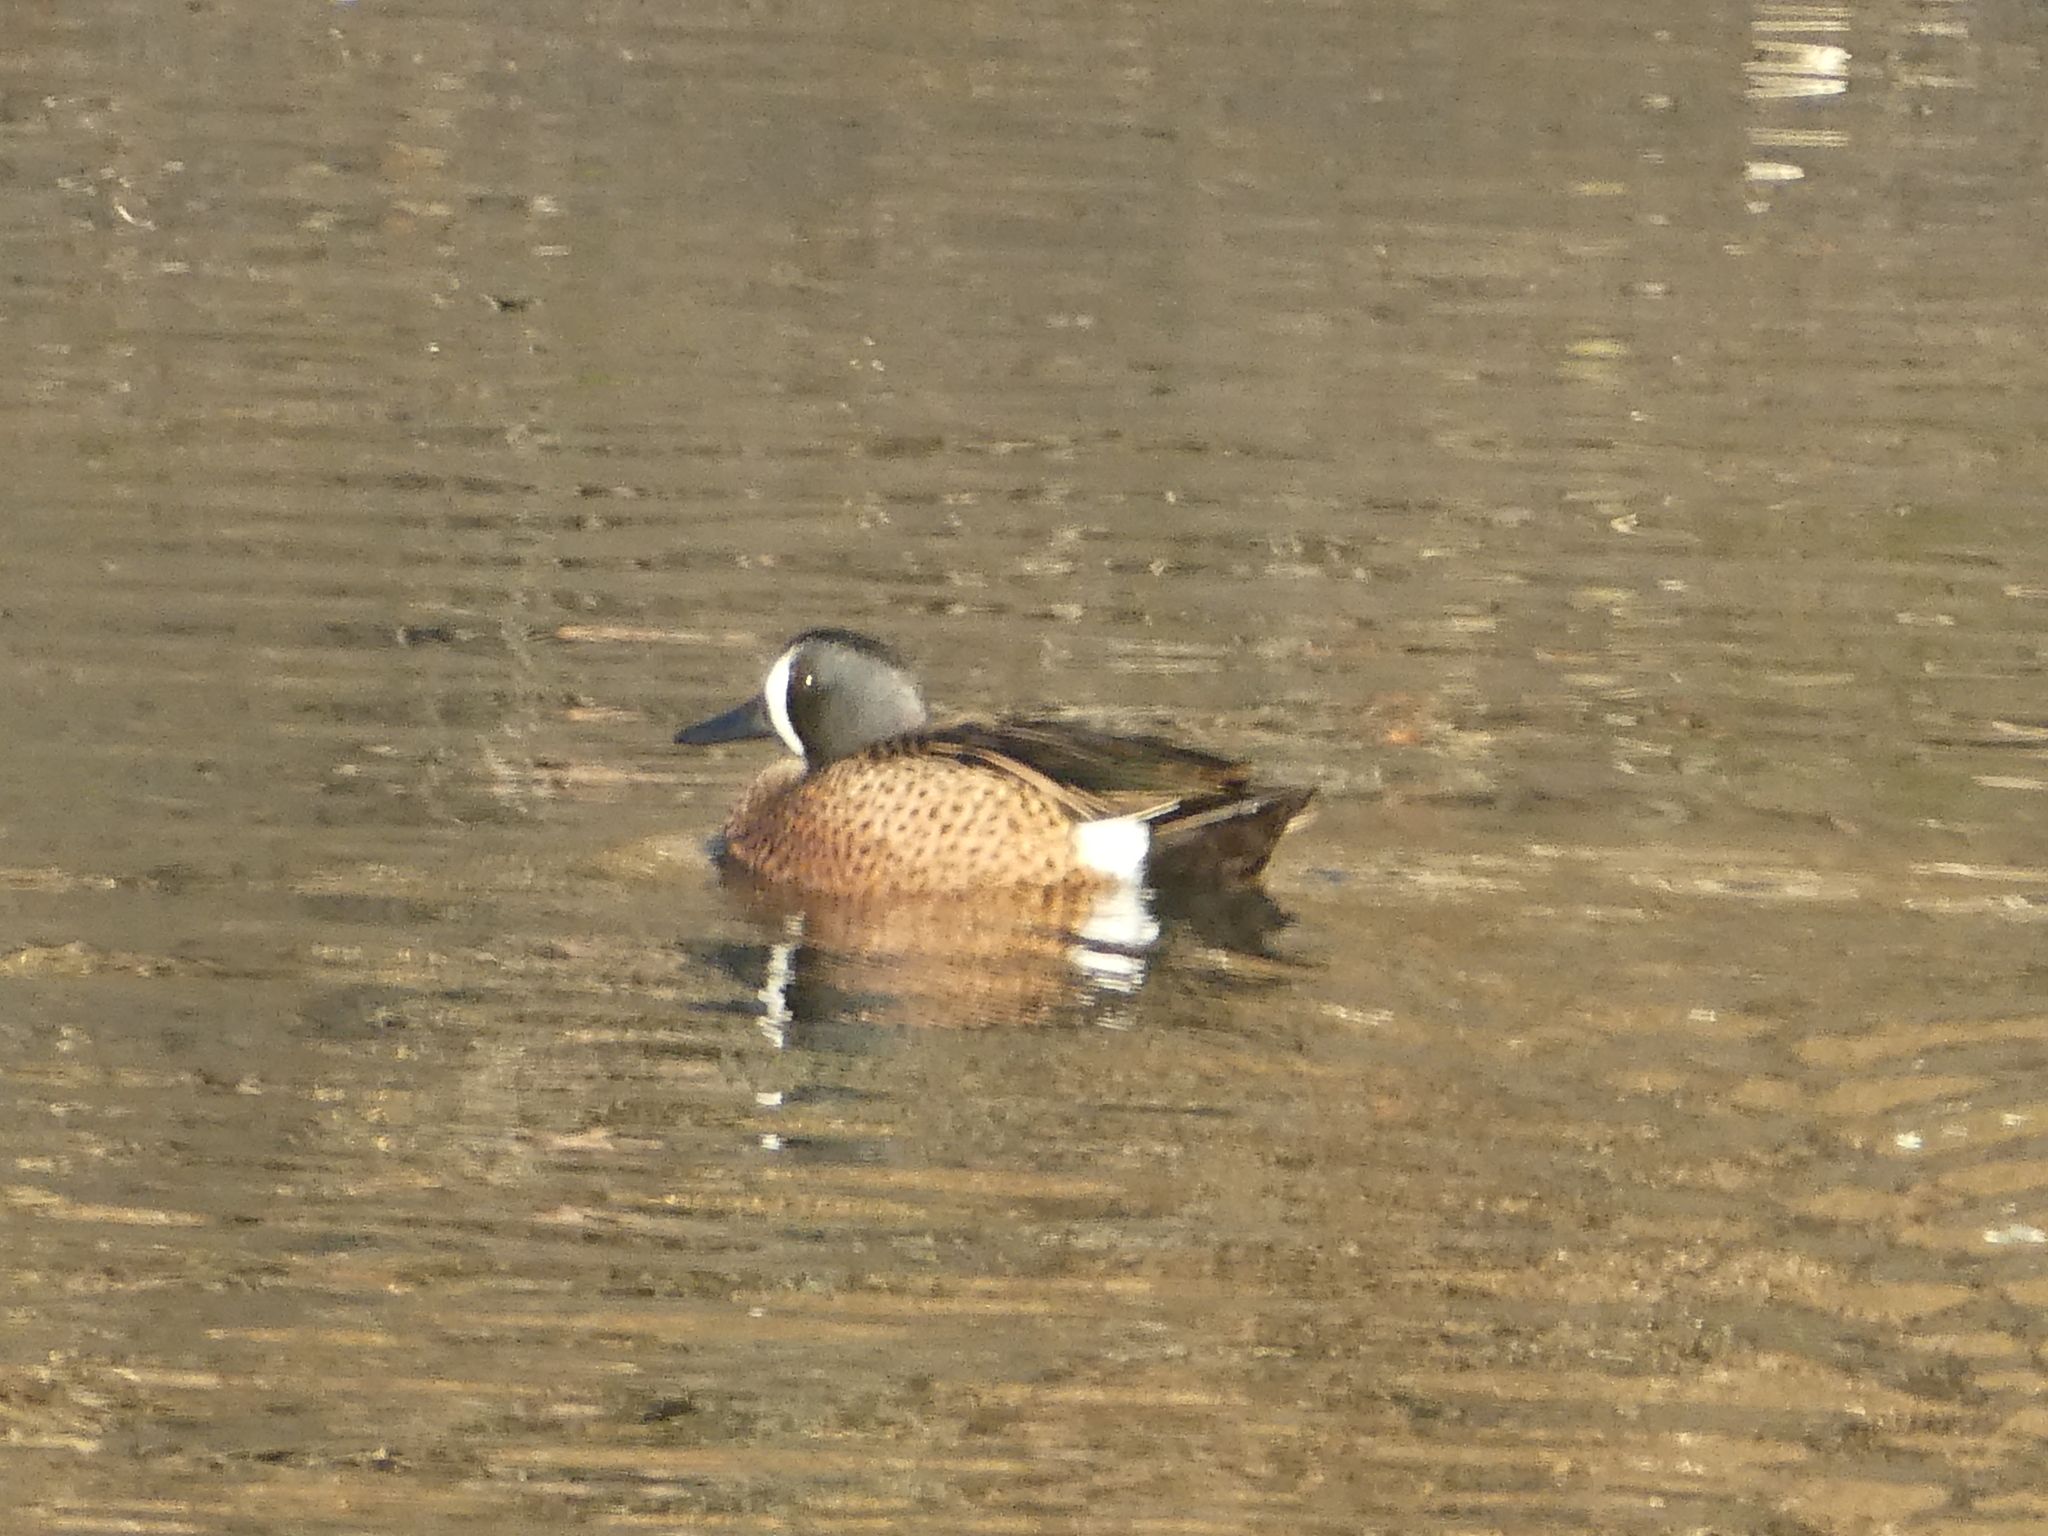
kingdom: Animalia
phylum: Chordata
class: Aves
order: Anseriformes
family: Anatidae
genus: Spatula
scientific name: Spatula discors
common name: Blue-winged teal
